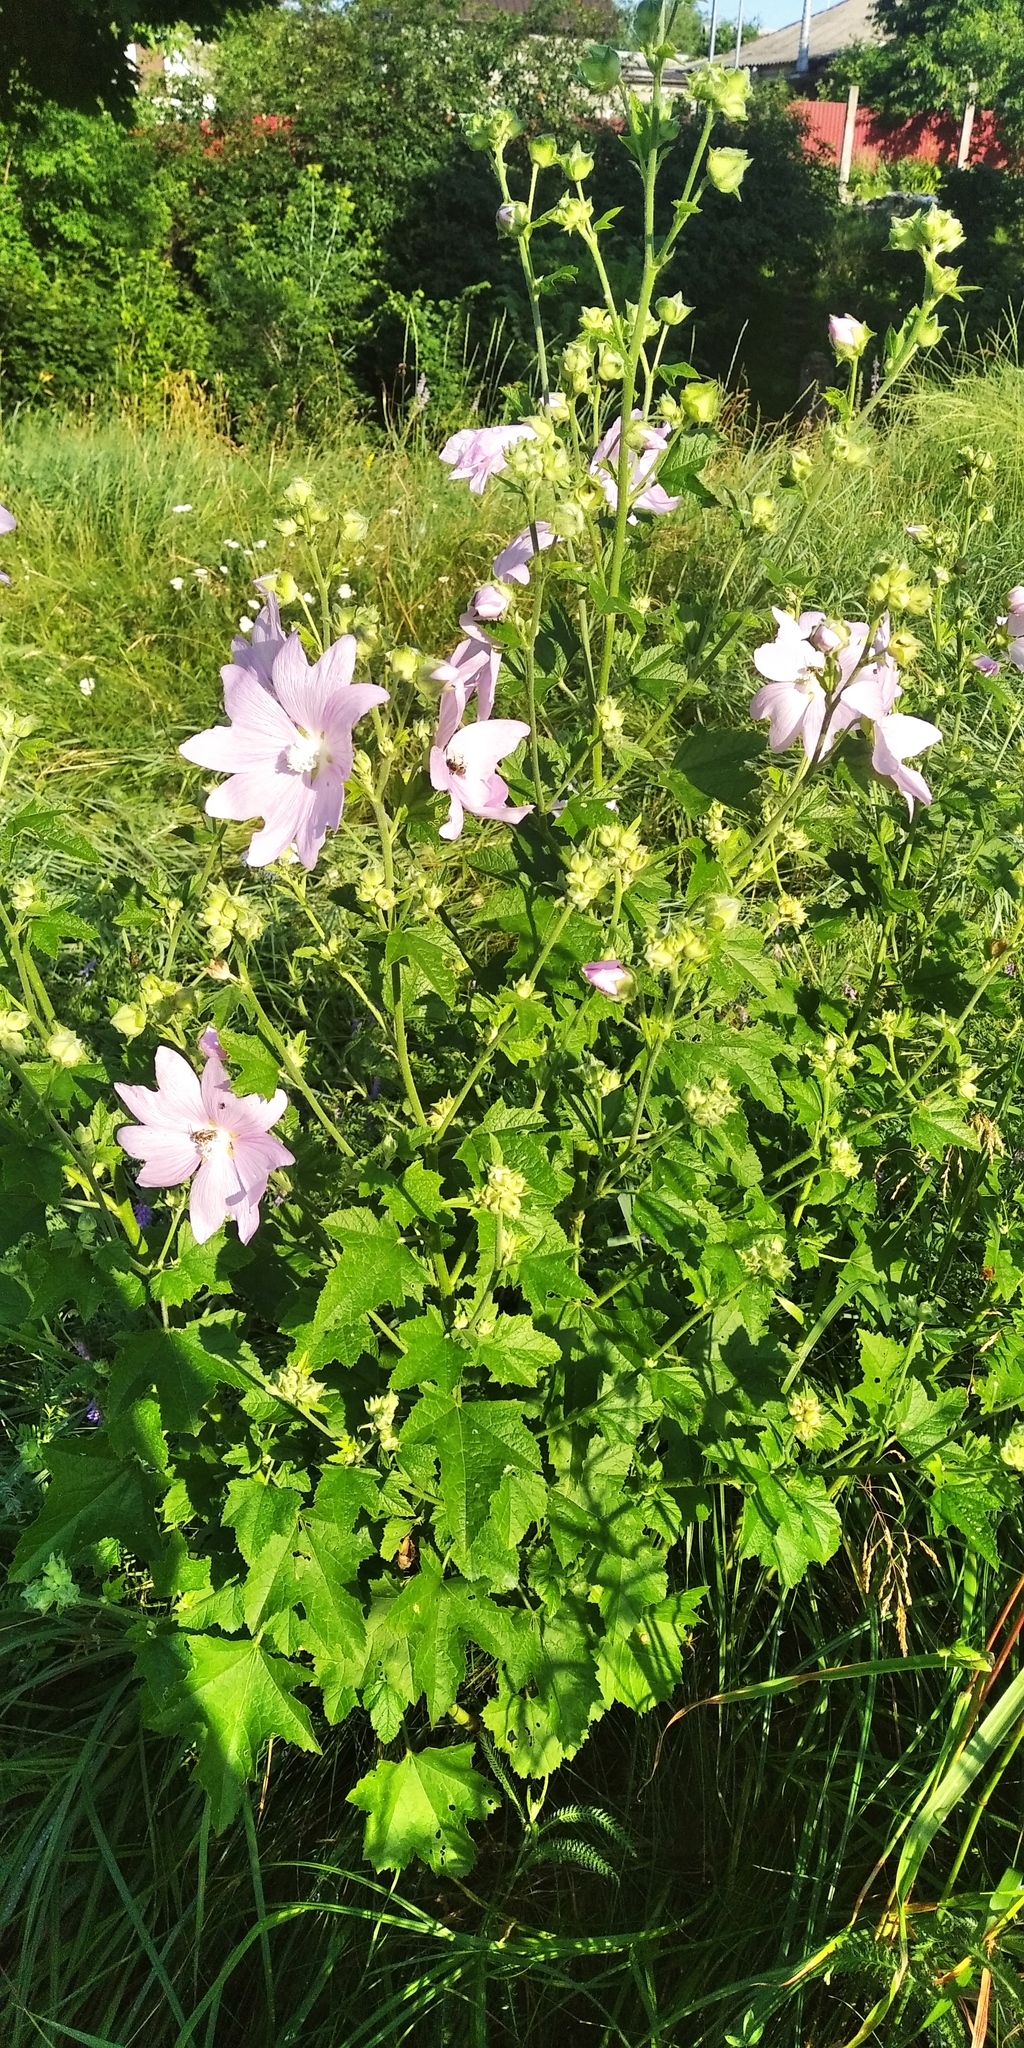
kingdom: Plantae
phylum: Tracheophyta
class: Magnoliopsida
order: Malvales
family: Malvaceae
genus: Malva
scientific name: Malva thuringiaca
